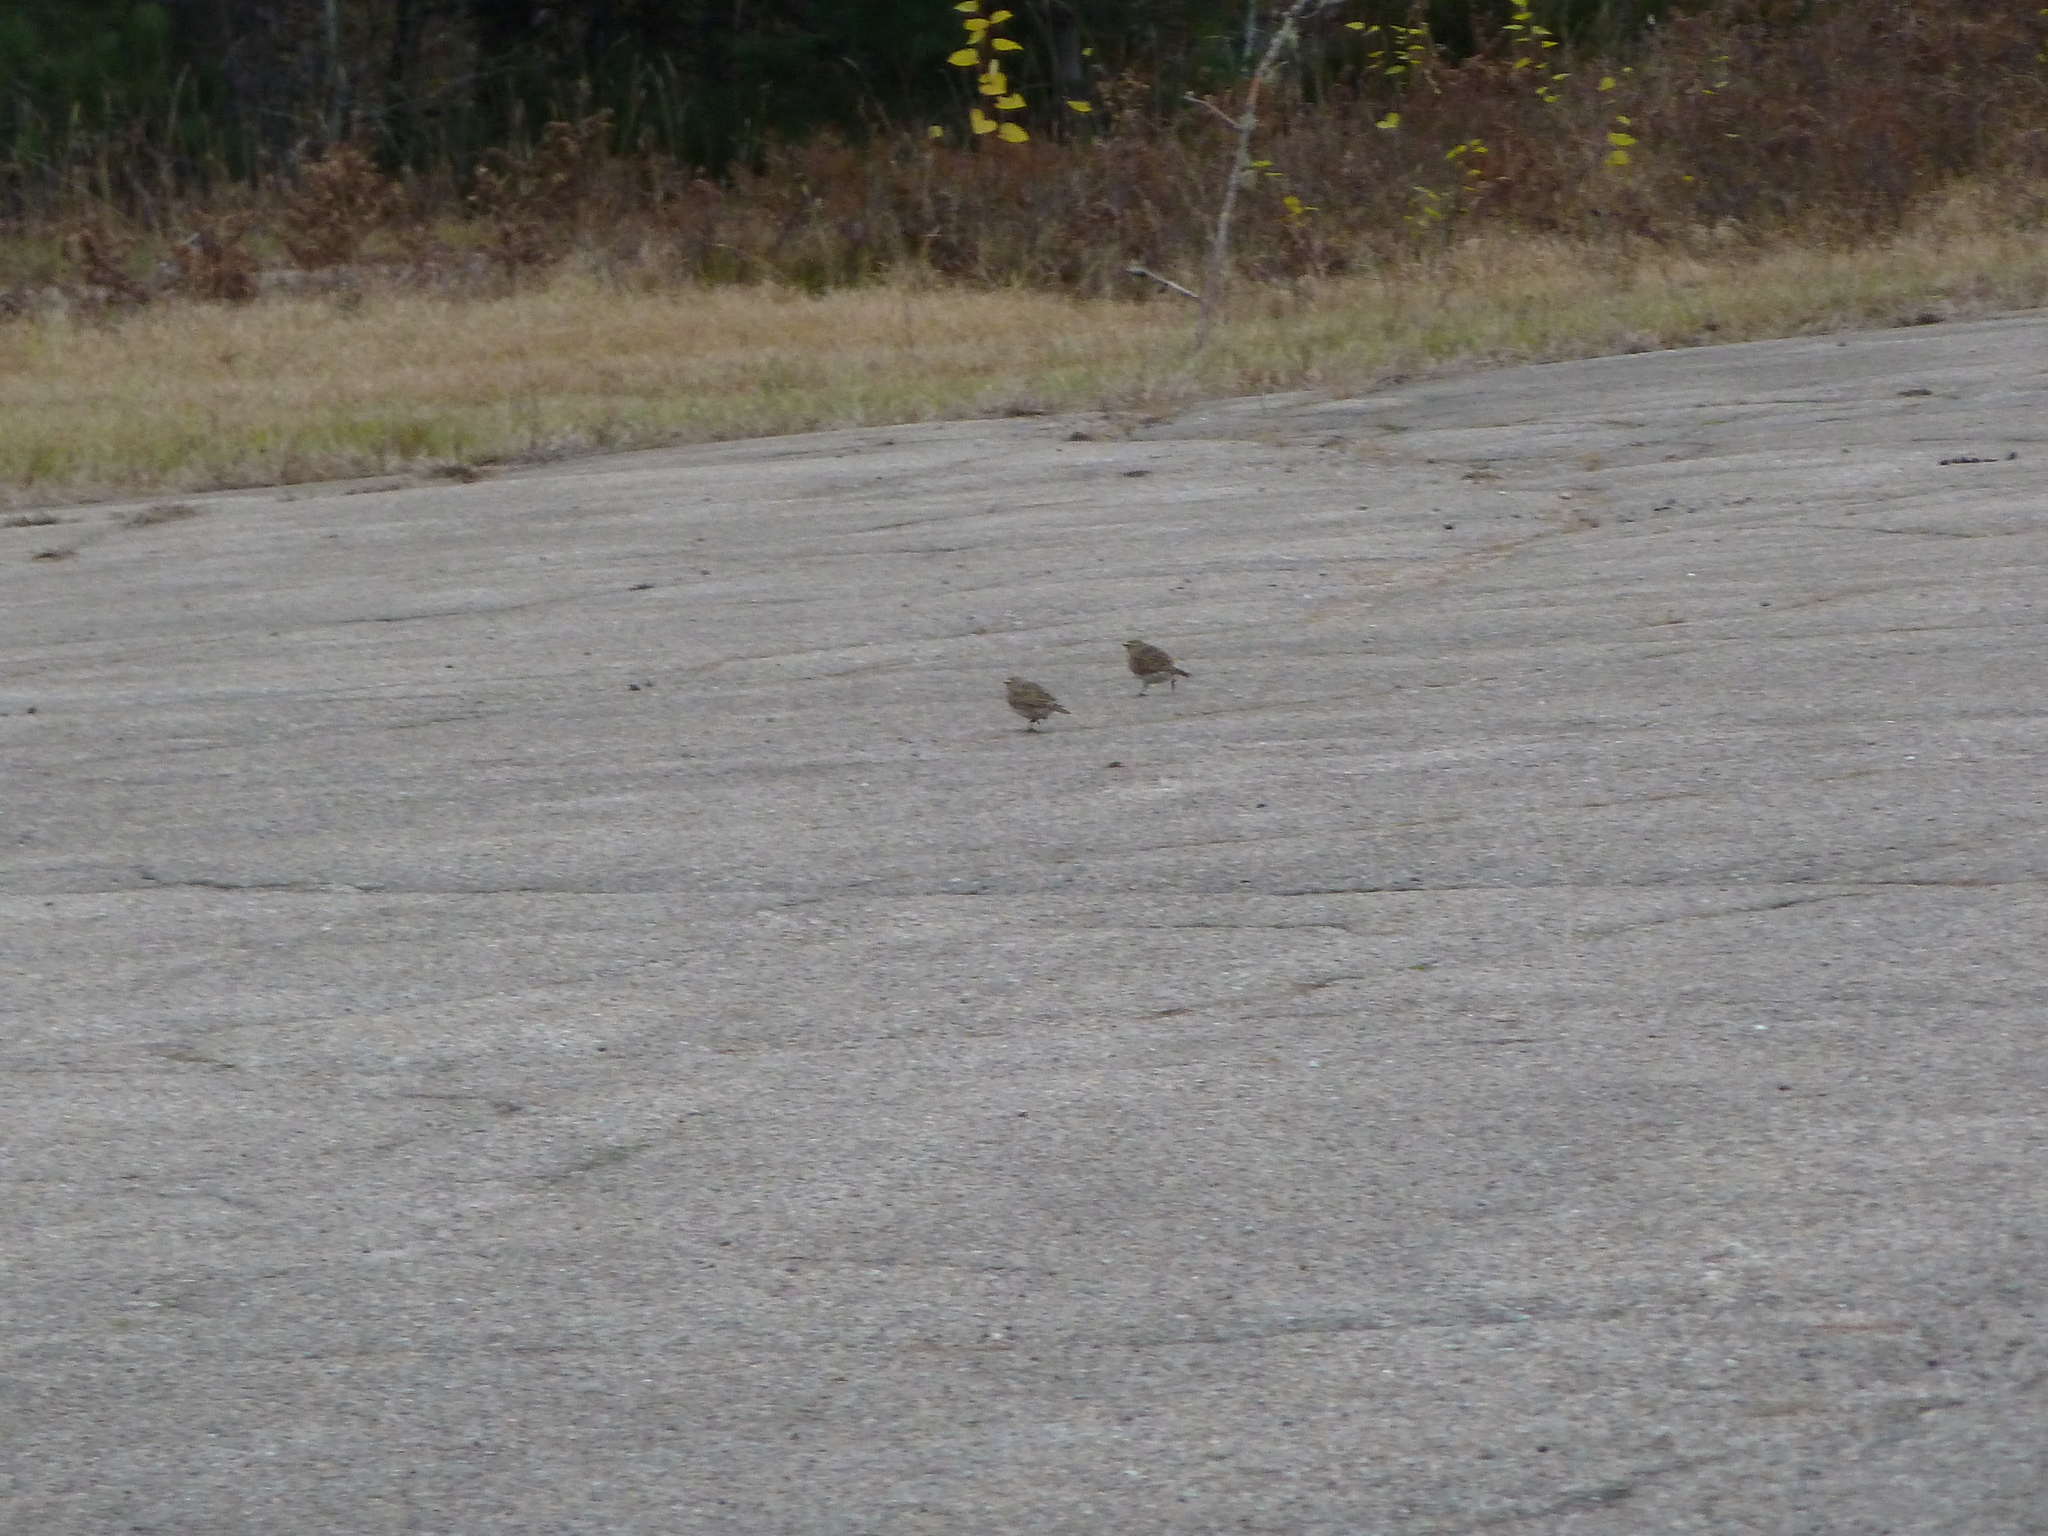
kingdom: Animalia
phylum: Chordata
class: Aves
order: Passeriformes
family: Alaudidae
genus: Eremophila
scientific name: Eremophila alpestris
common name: Horned lark
